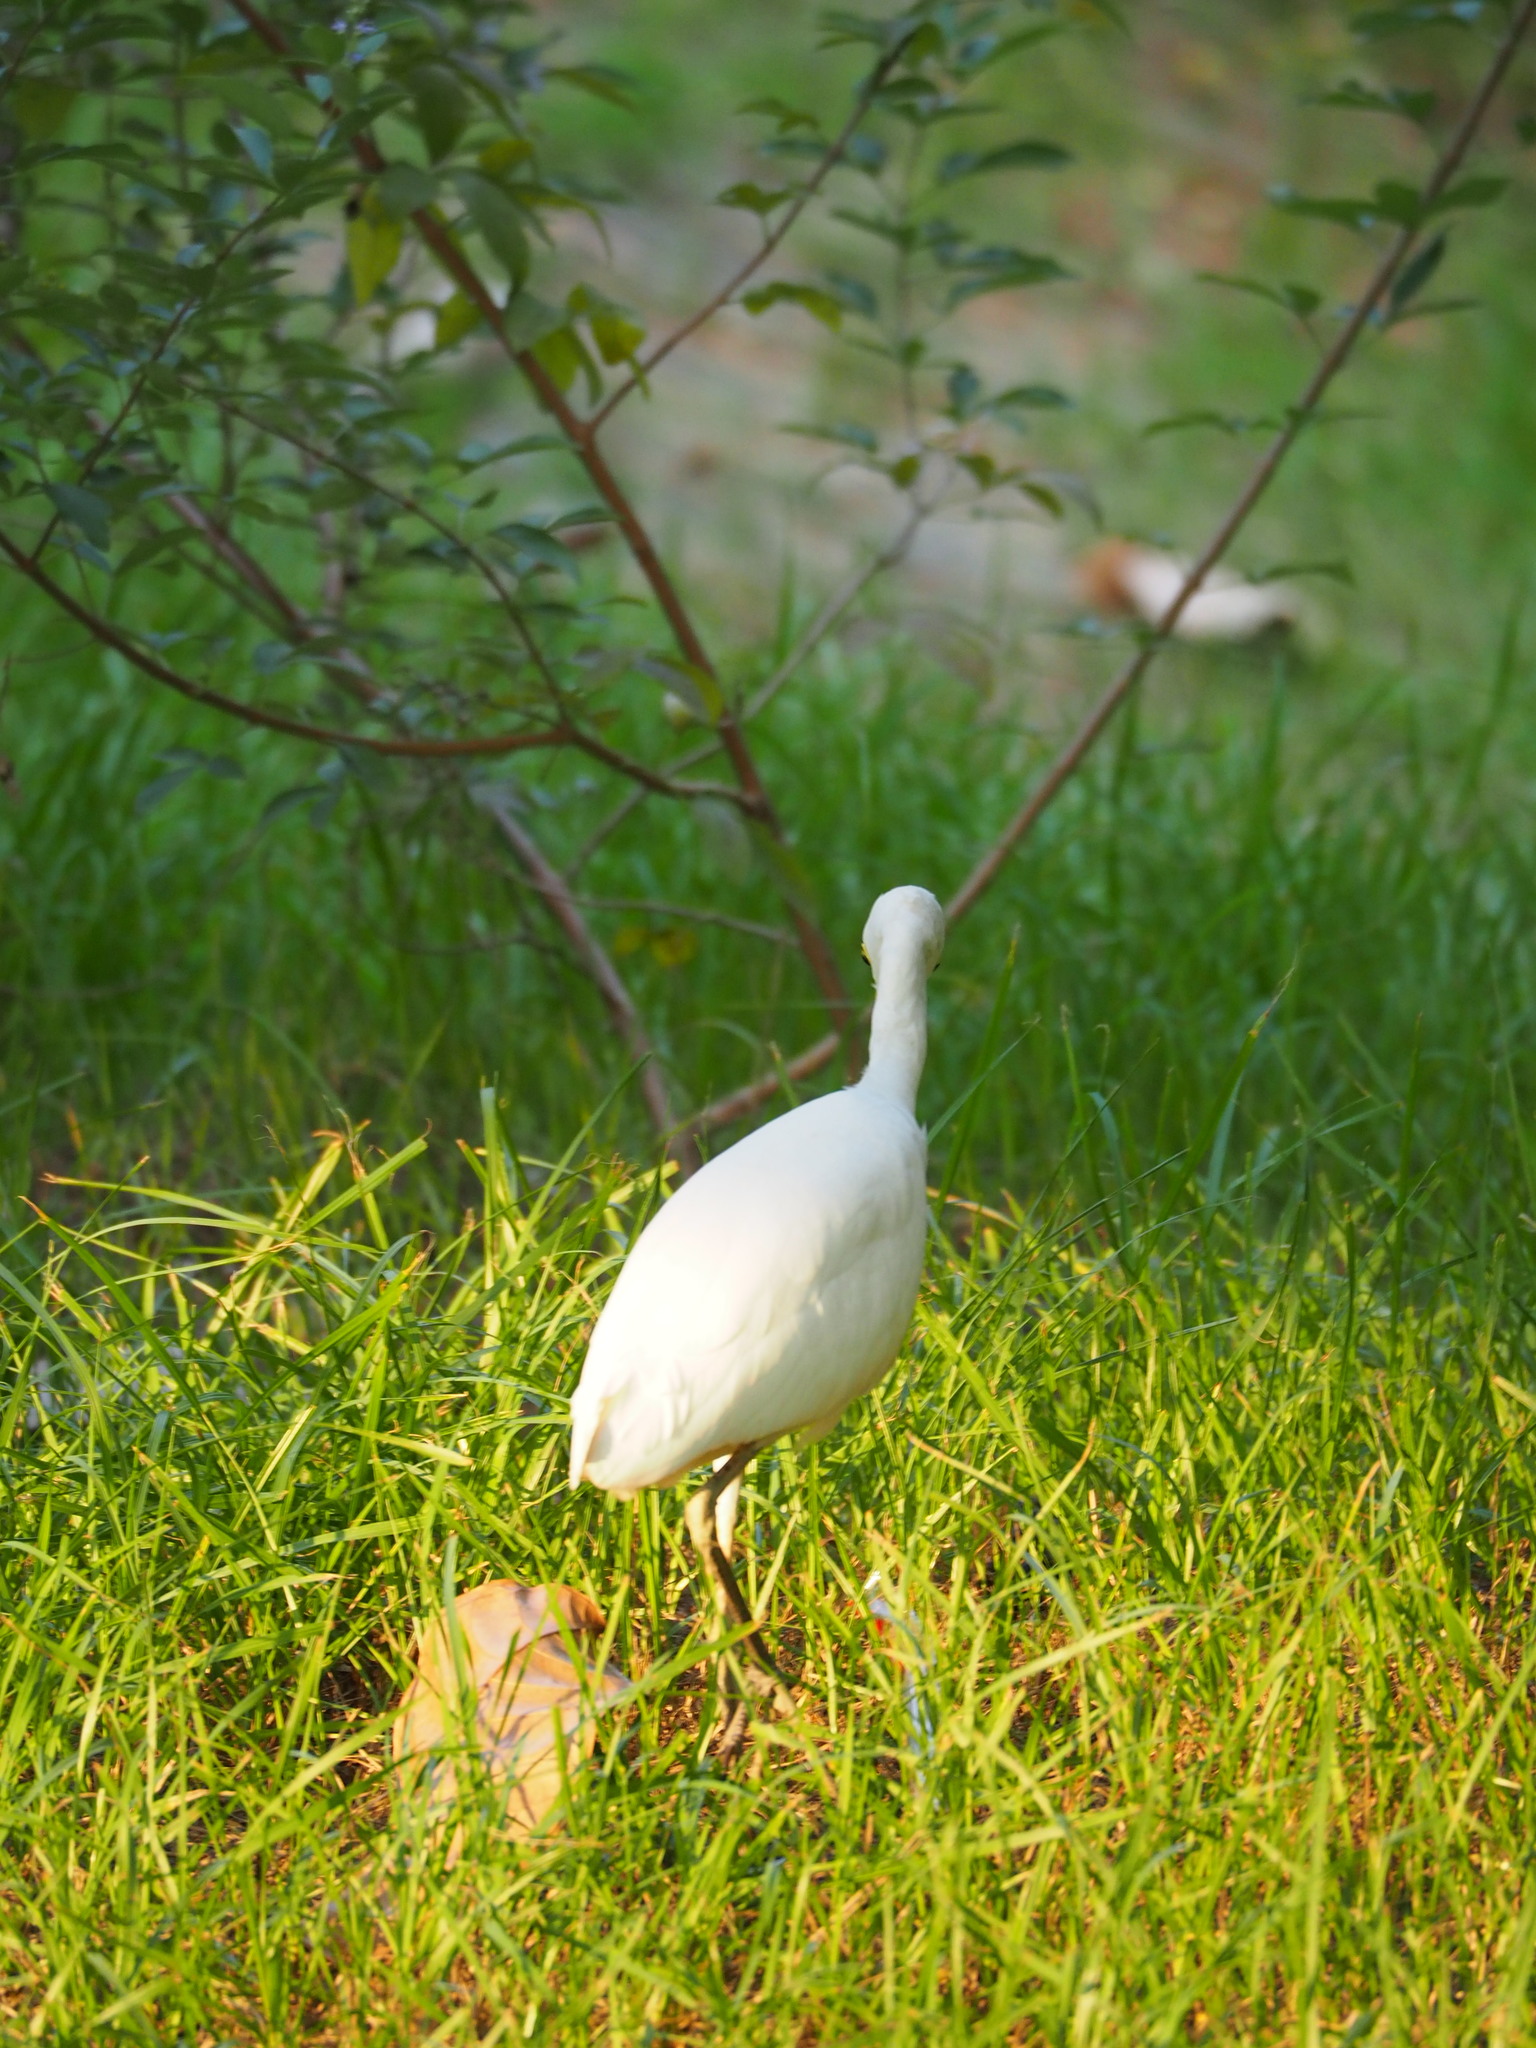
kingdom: Animalia
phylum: Chordata
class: Aves
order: Pelecaniformes
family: Ardeidae
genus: Bubulcus
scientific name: Bubulcus coromandus
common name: Eastern cattle egret
